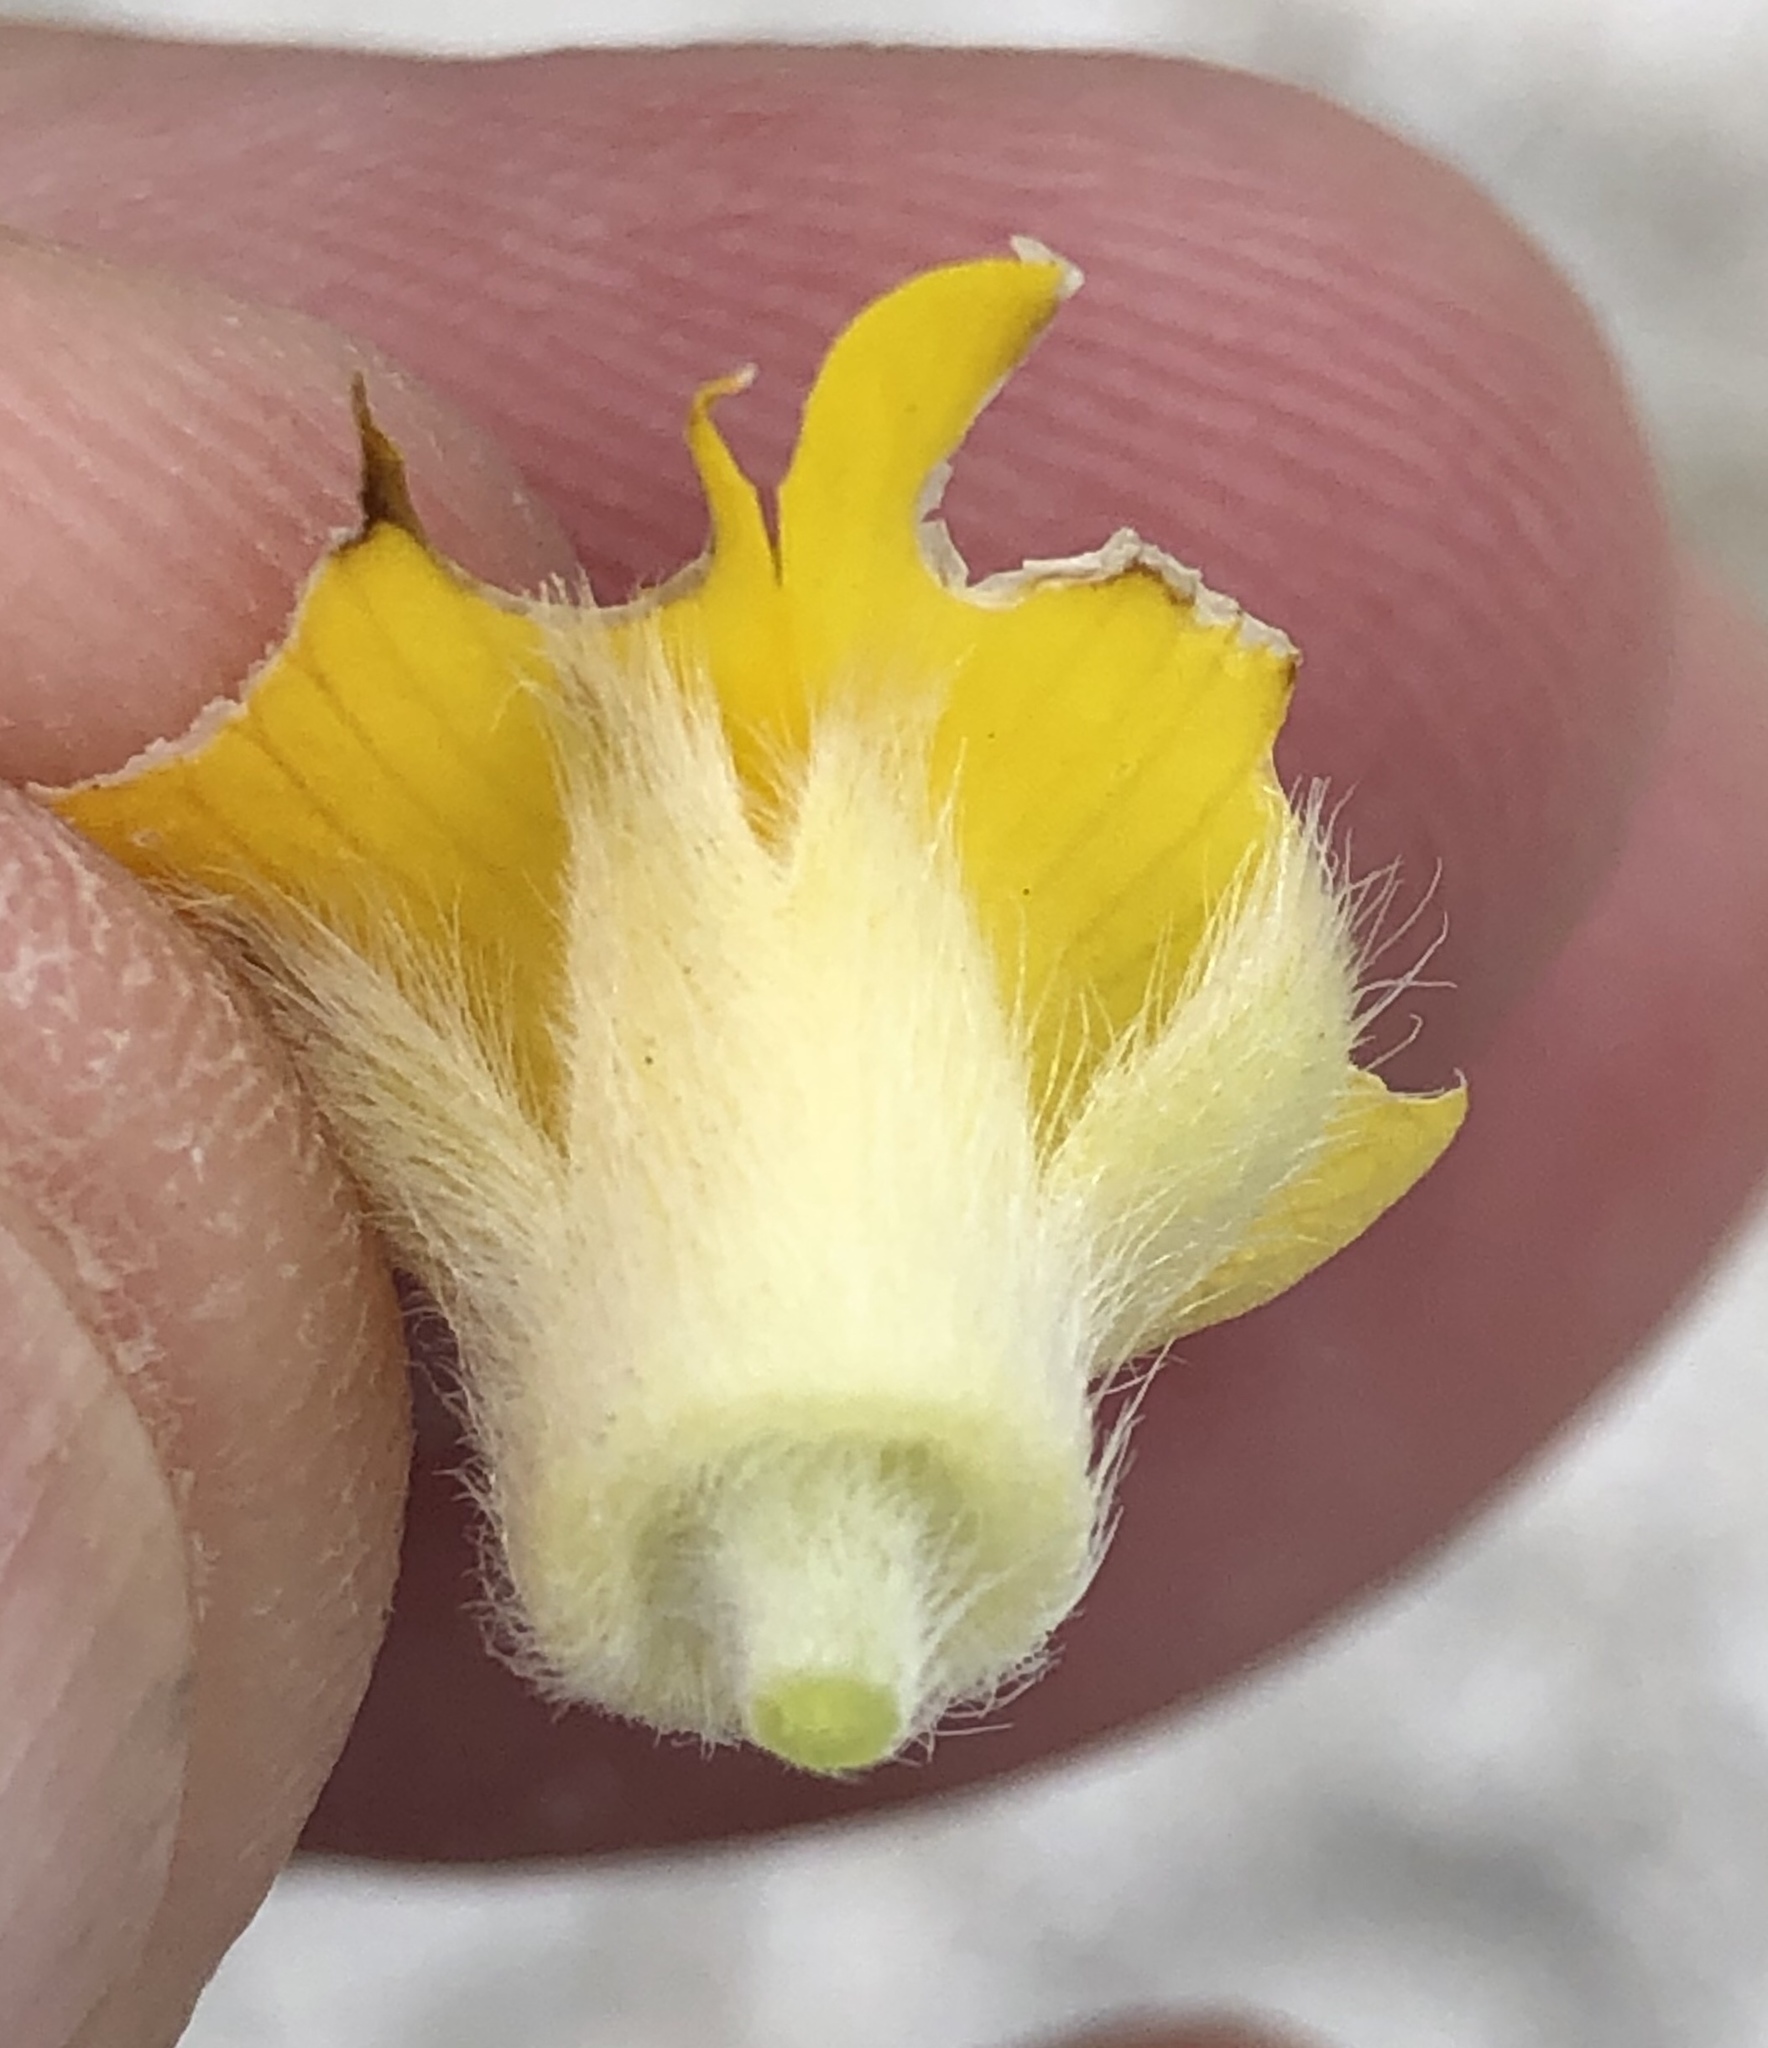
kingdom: Plantae
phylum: Tracheophyta
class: Magnoliopsida
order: Fabales
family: Fabaceae
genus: Liparia
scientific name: Liparia vestita
